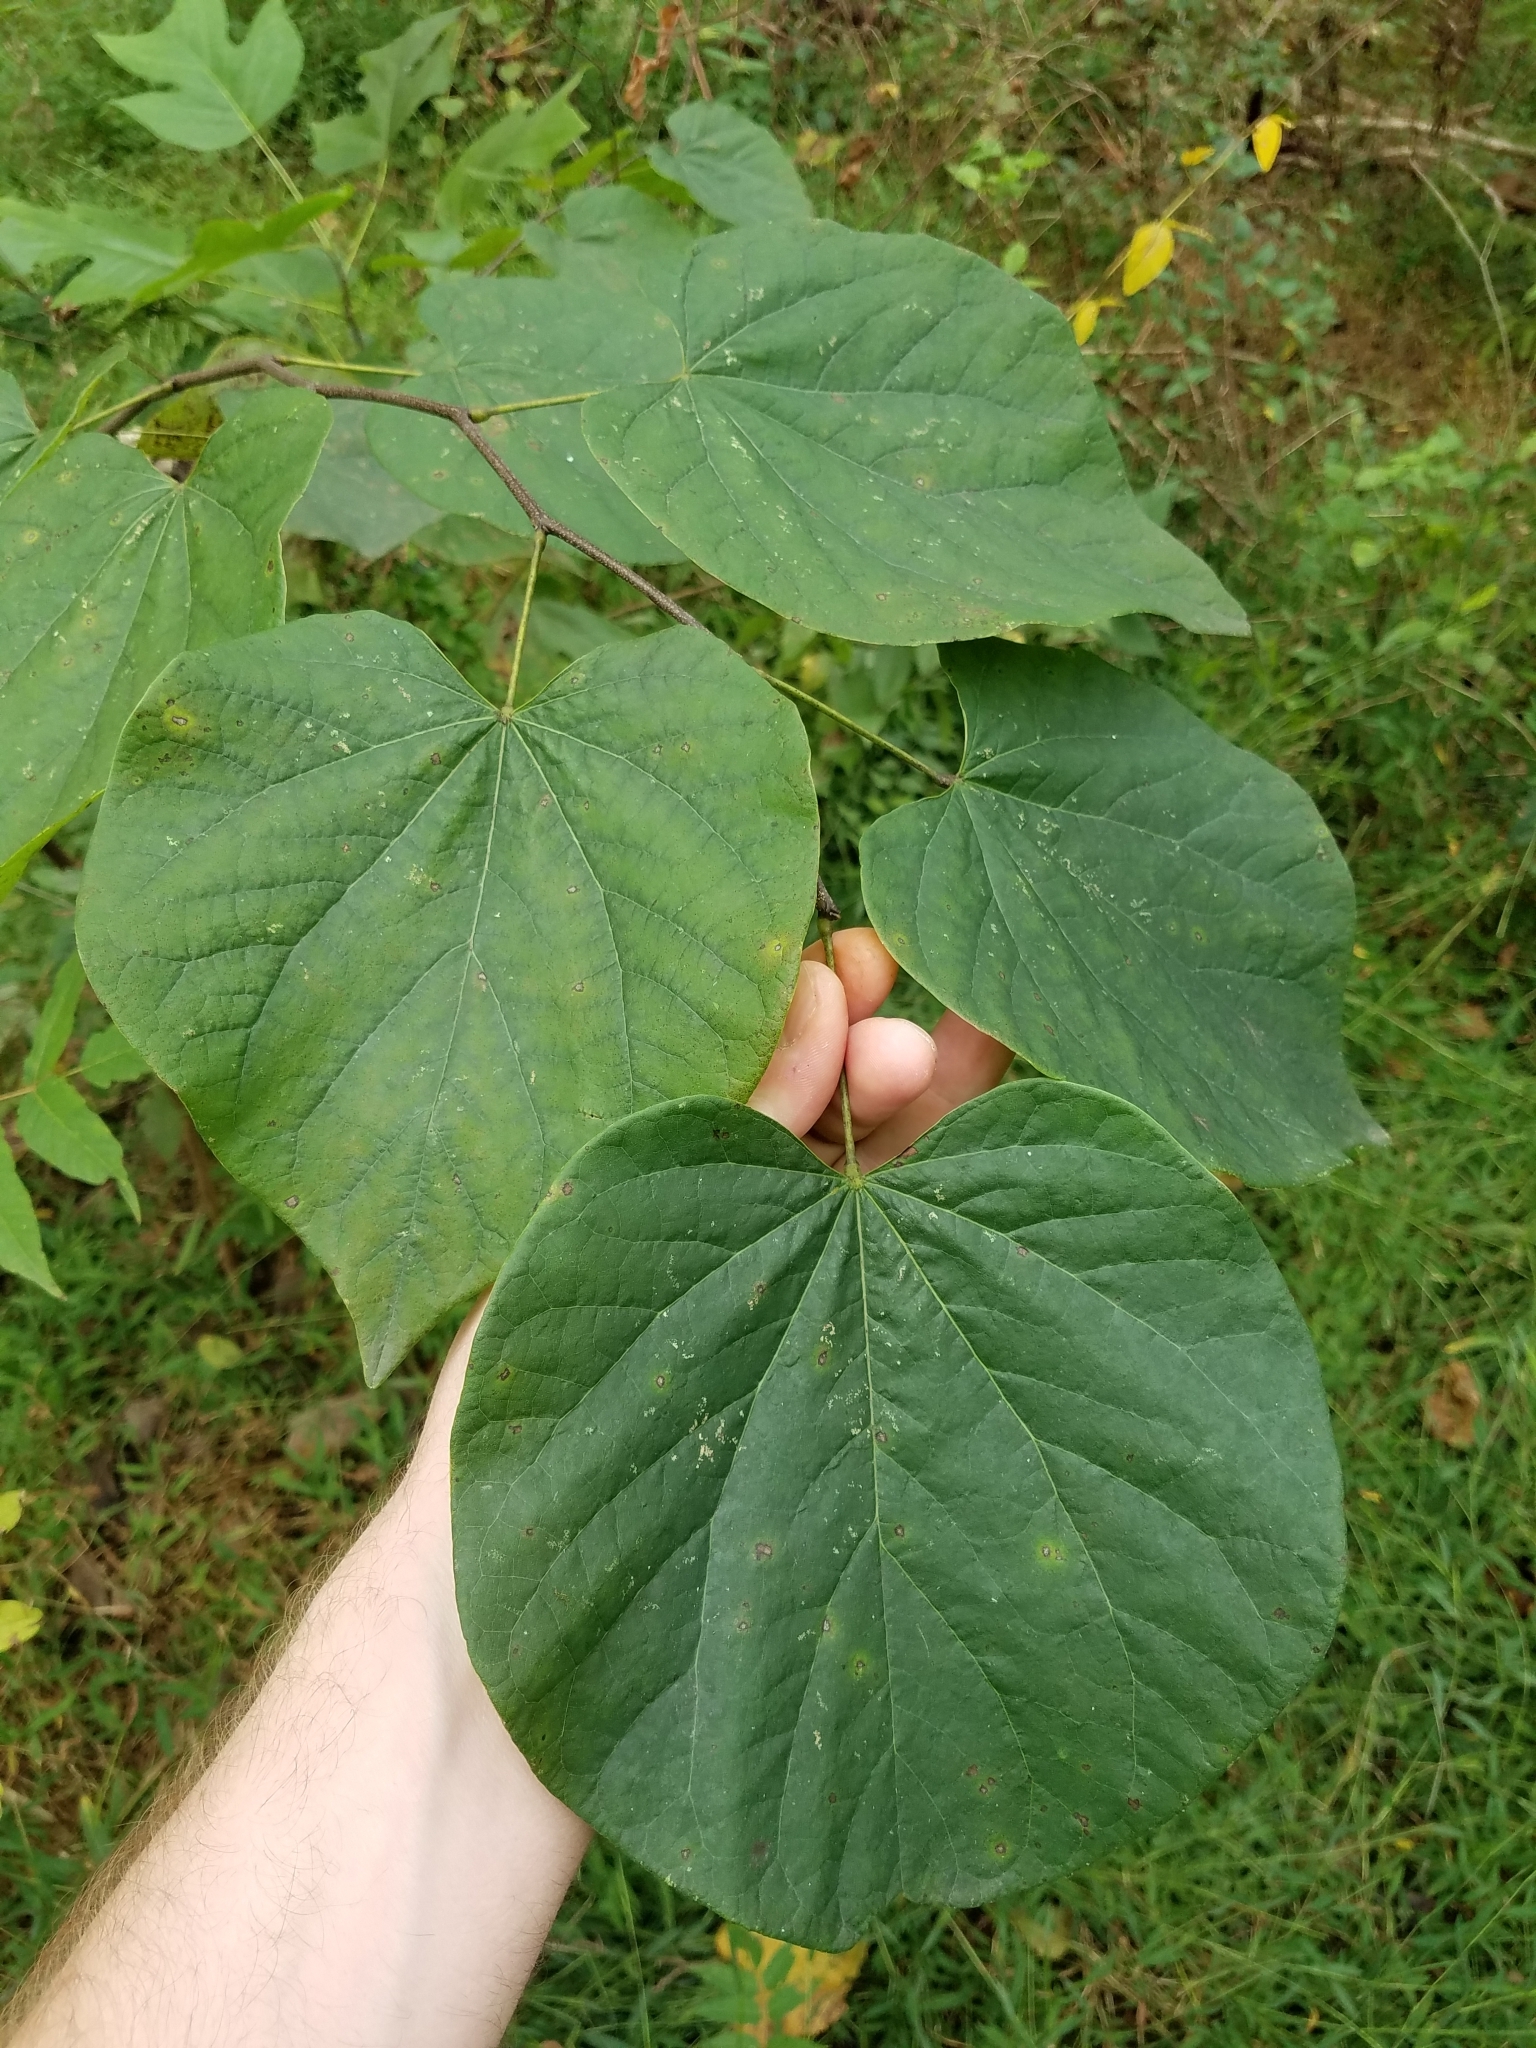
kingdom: Plantae
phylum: Tracheophyta
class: Magnoliopsida
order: Fabales
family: Fabaceae
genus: Cercis
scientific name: Cercis canadensis
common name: Eastern redbud
